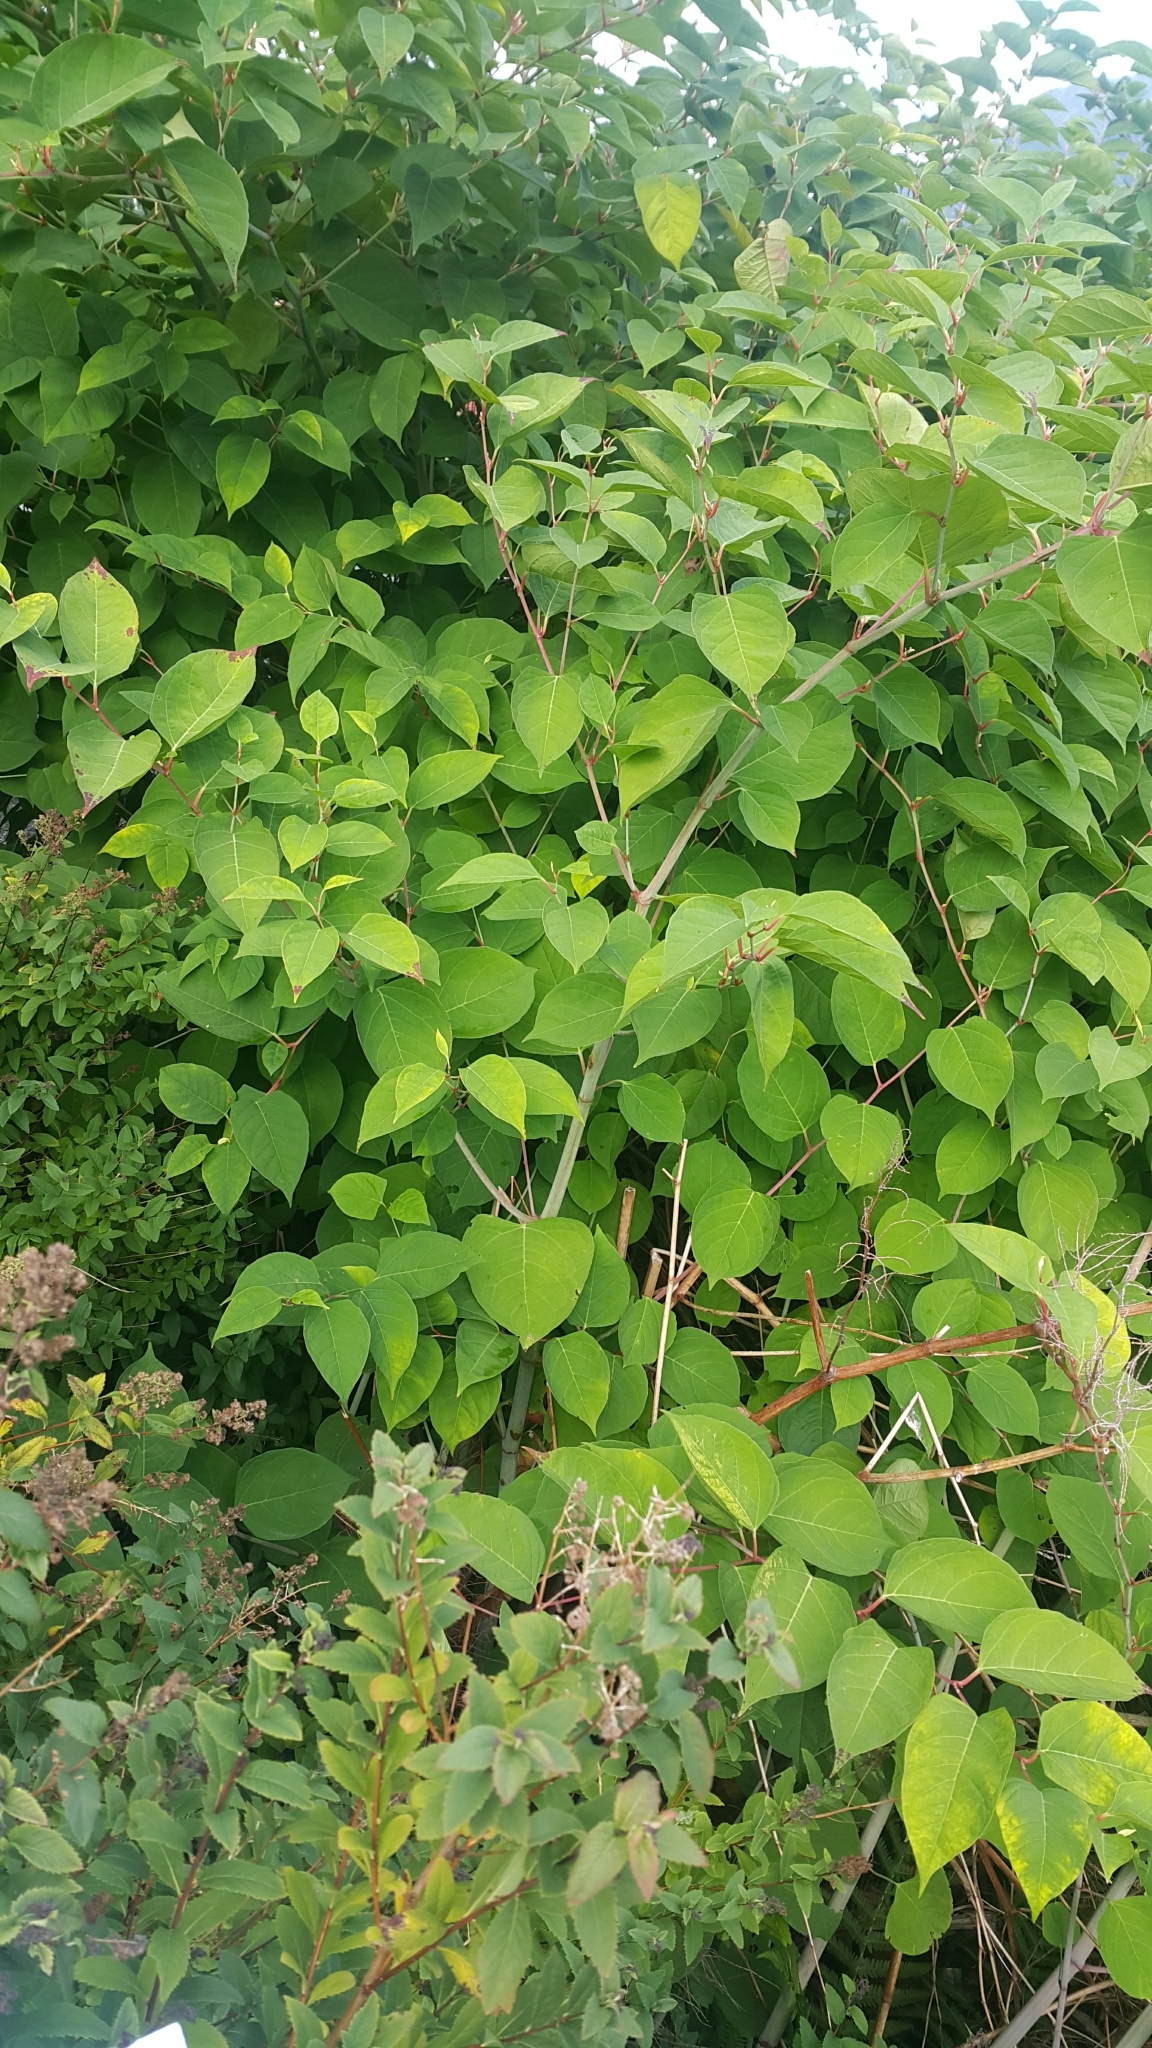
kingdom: Plantae
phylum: Tracheophyta
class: Magnoliopsida
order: Caryophyllales
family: Polygonaceae
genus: Reynoutria
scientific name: Reynoutria japonica
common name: Japanese knotweed
